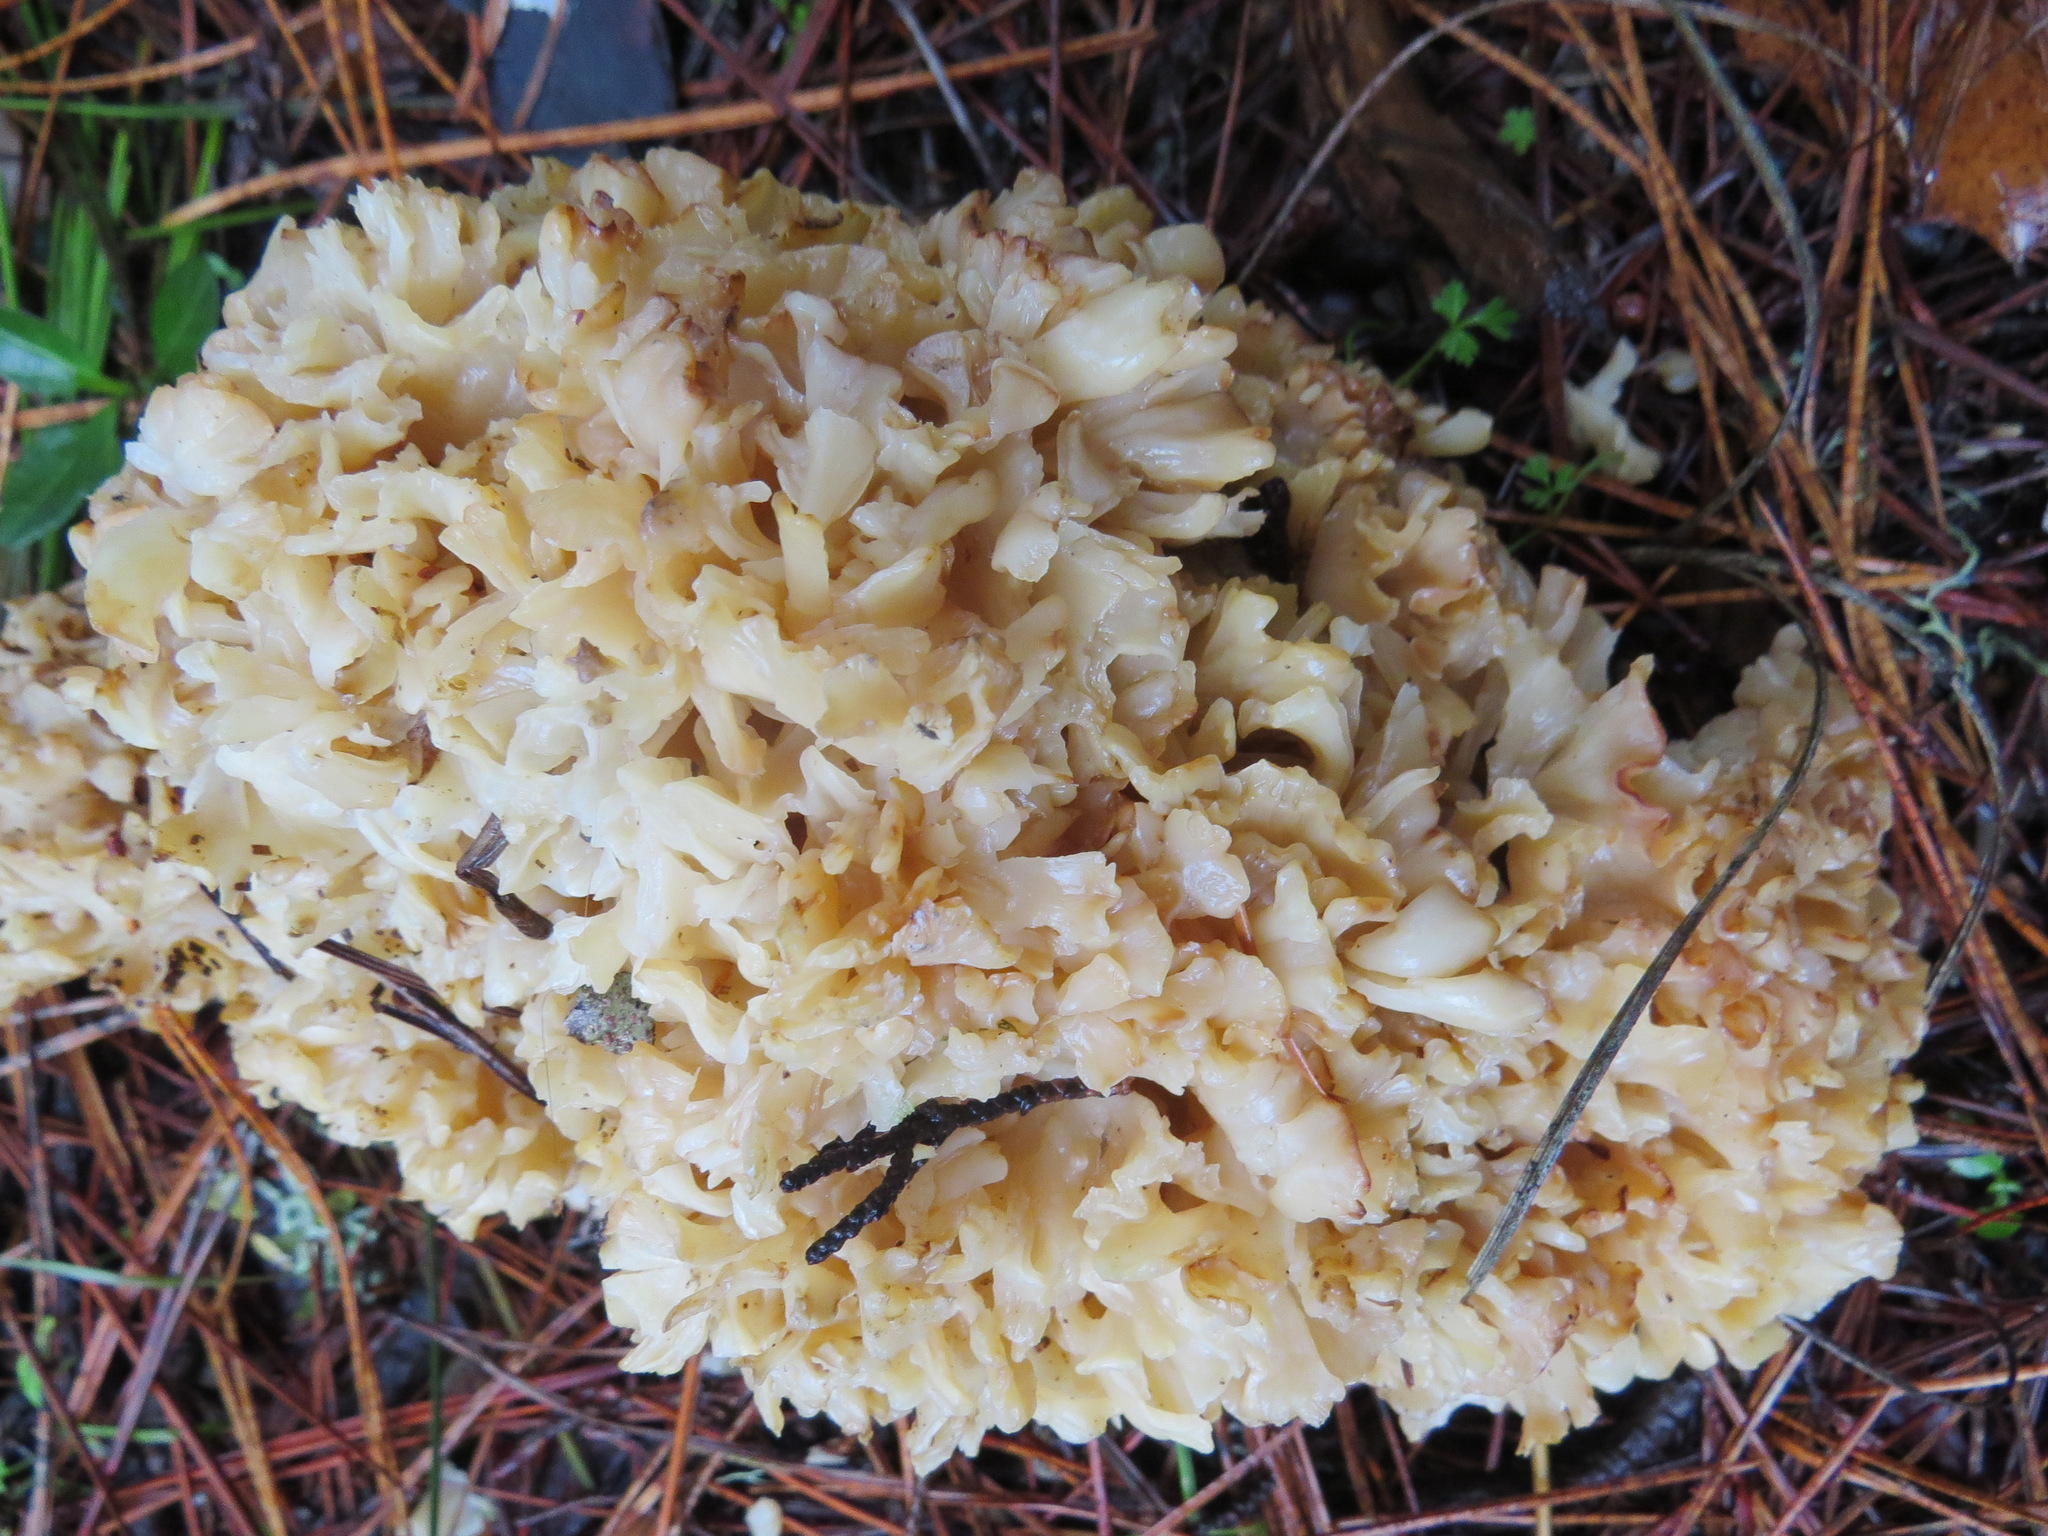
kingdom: Fungi
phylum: Basidiomycota
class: Agaricomycetes
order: Polyporales
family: Sparassidaceae
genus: Sparassis
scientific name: Sparassis radicata
